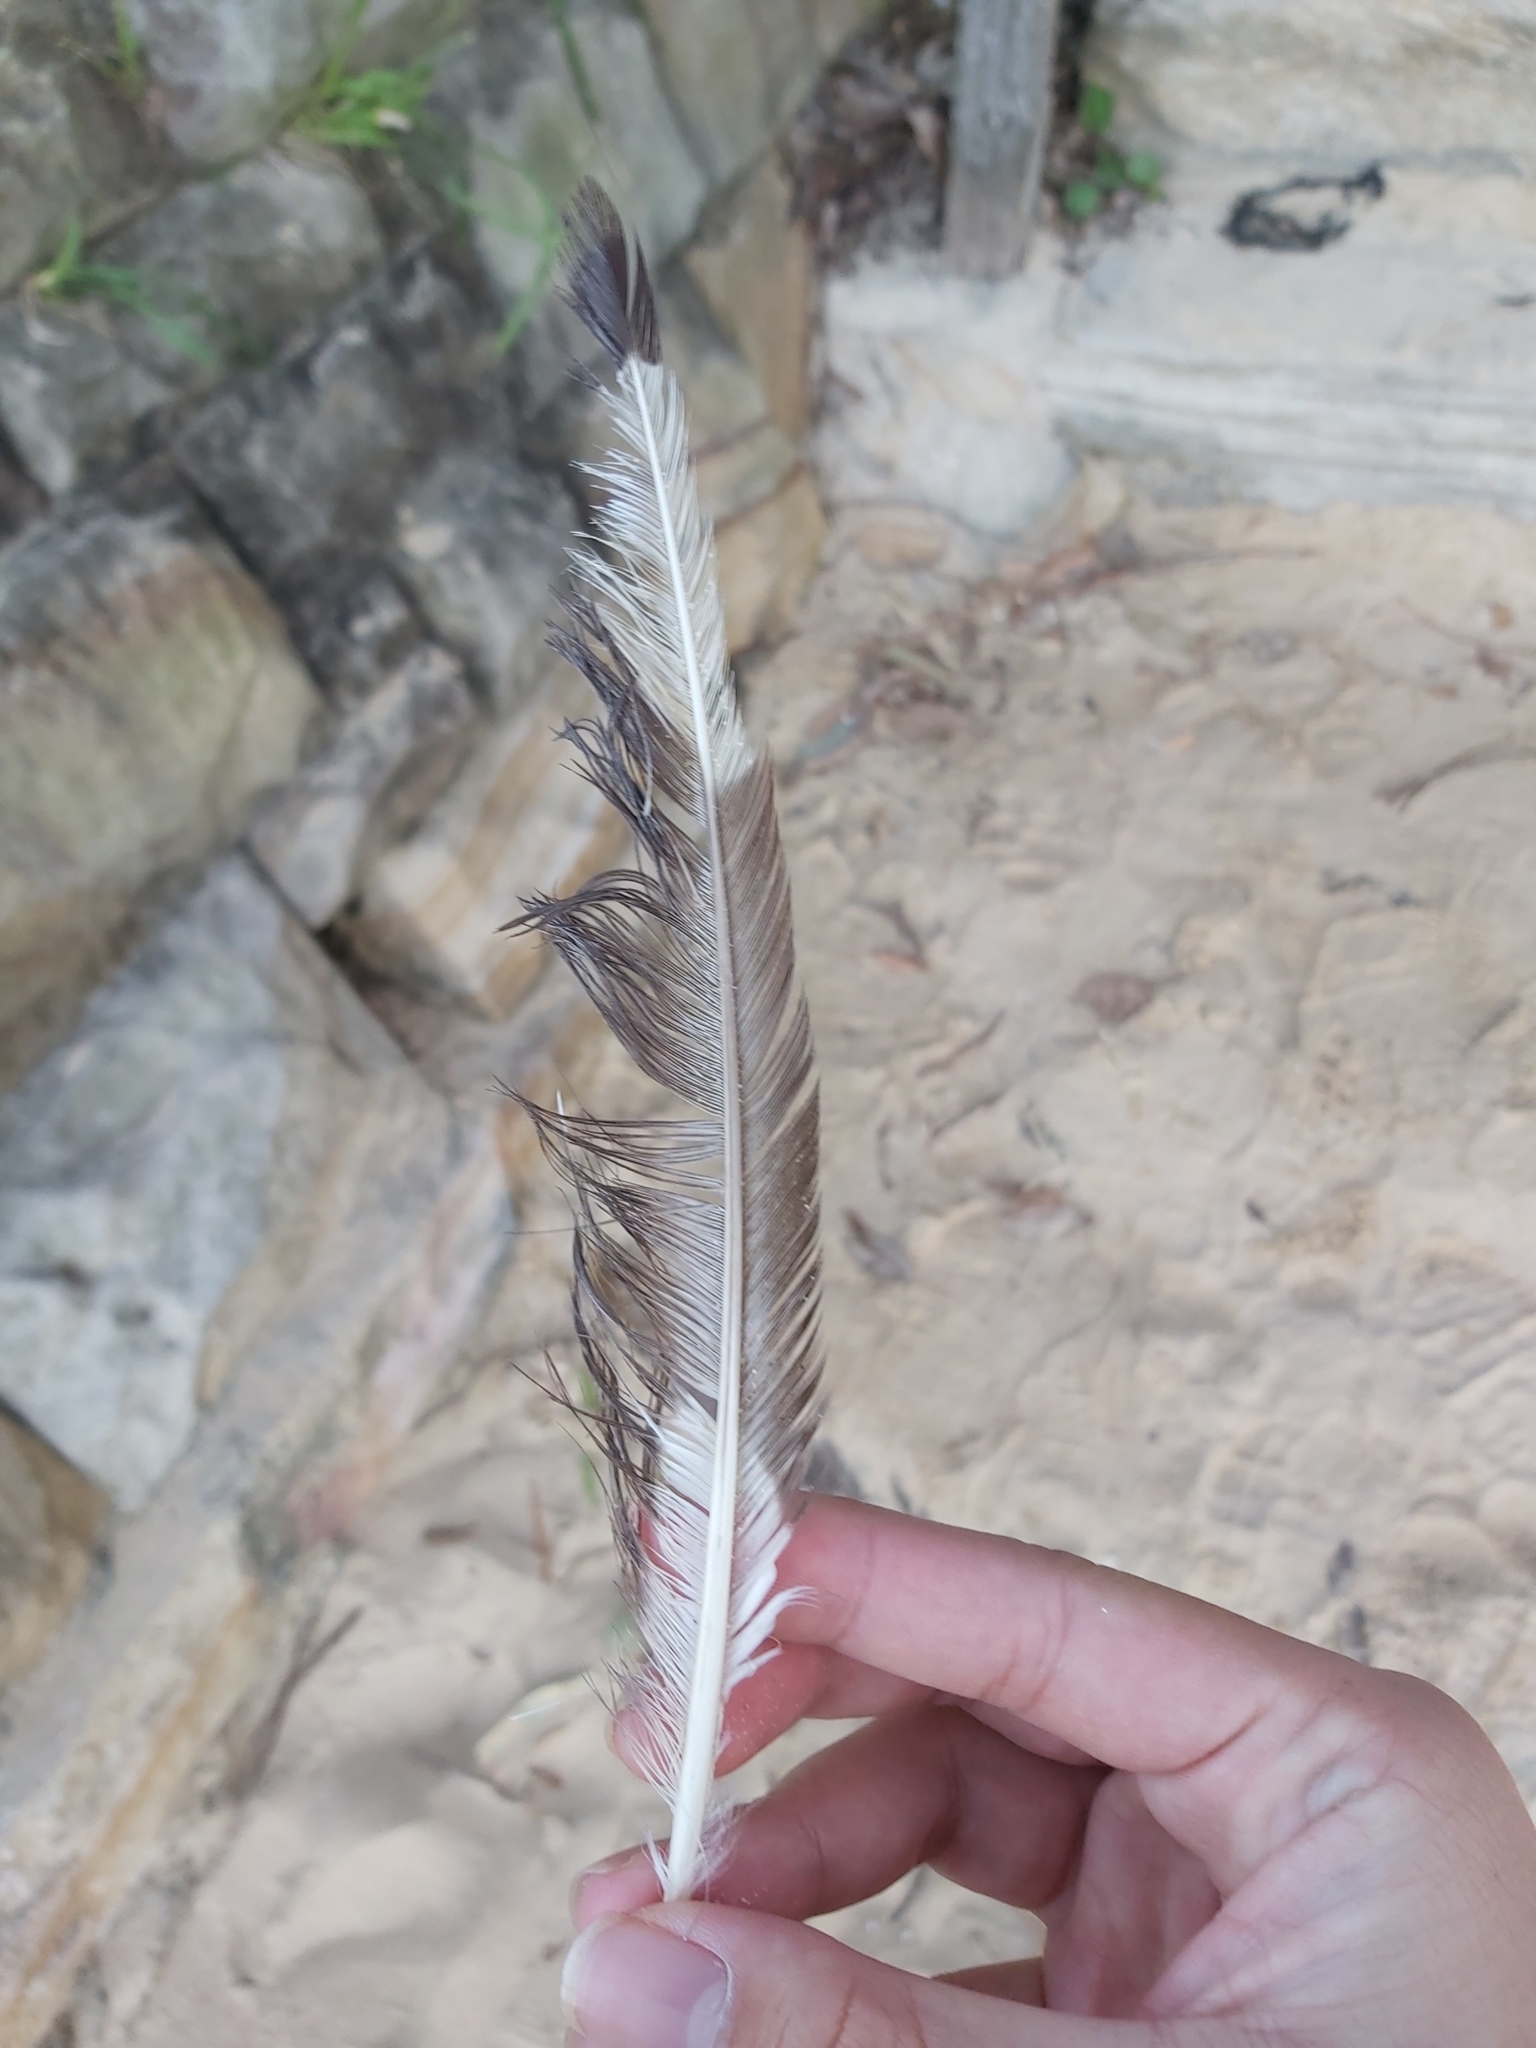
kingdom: Animalia
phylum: Chordata
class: Aves
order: Charadriiformes
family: Laridae
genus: Chroicocephalus
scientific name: Chroicocephalus novaehollandiae
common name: Silver gull
